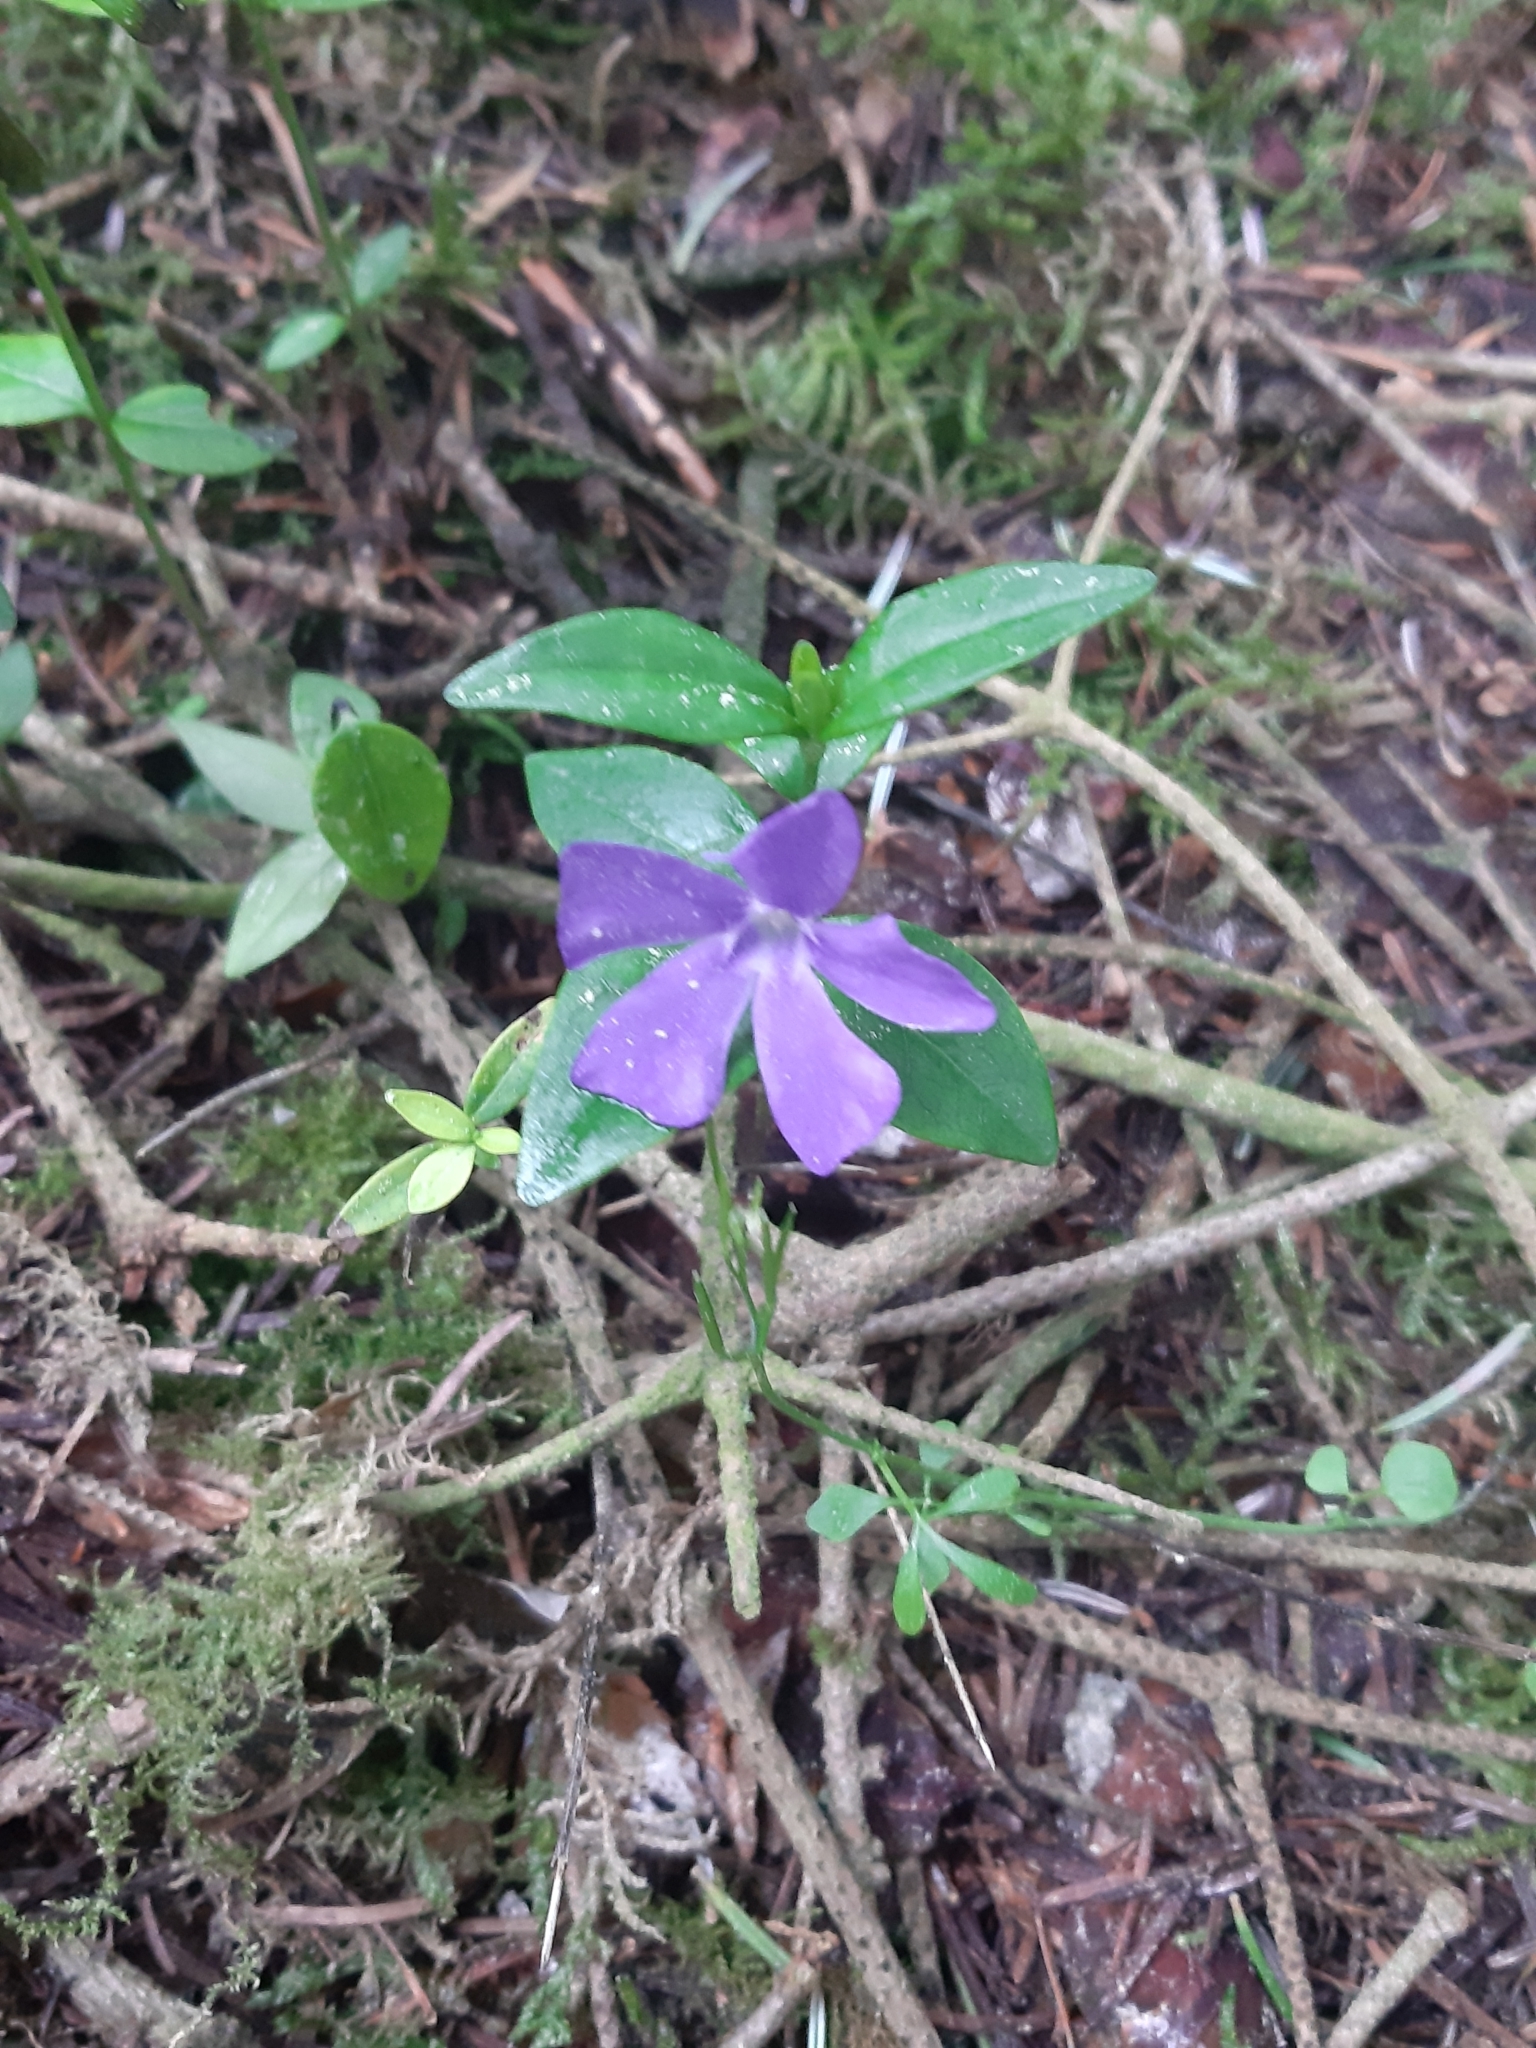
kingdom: Plantae
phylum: Tracheophyta
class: Magnoliopsida
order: Gentianales
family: Apocynaceae
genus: Vinca
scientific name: Vinca minor
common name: Lesser periwinkle
